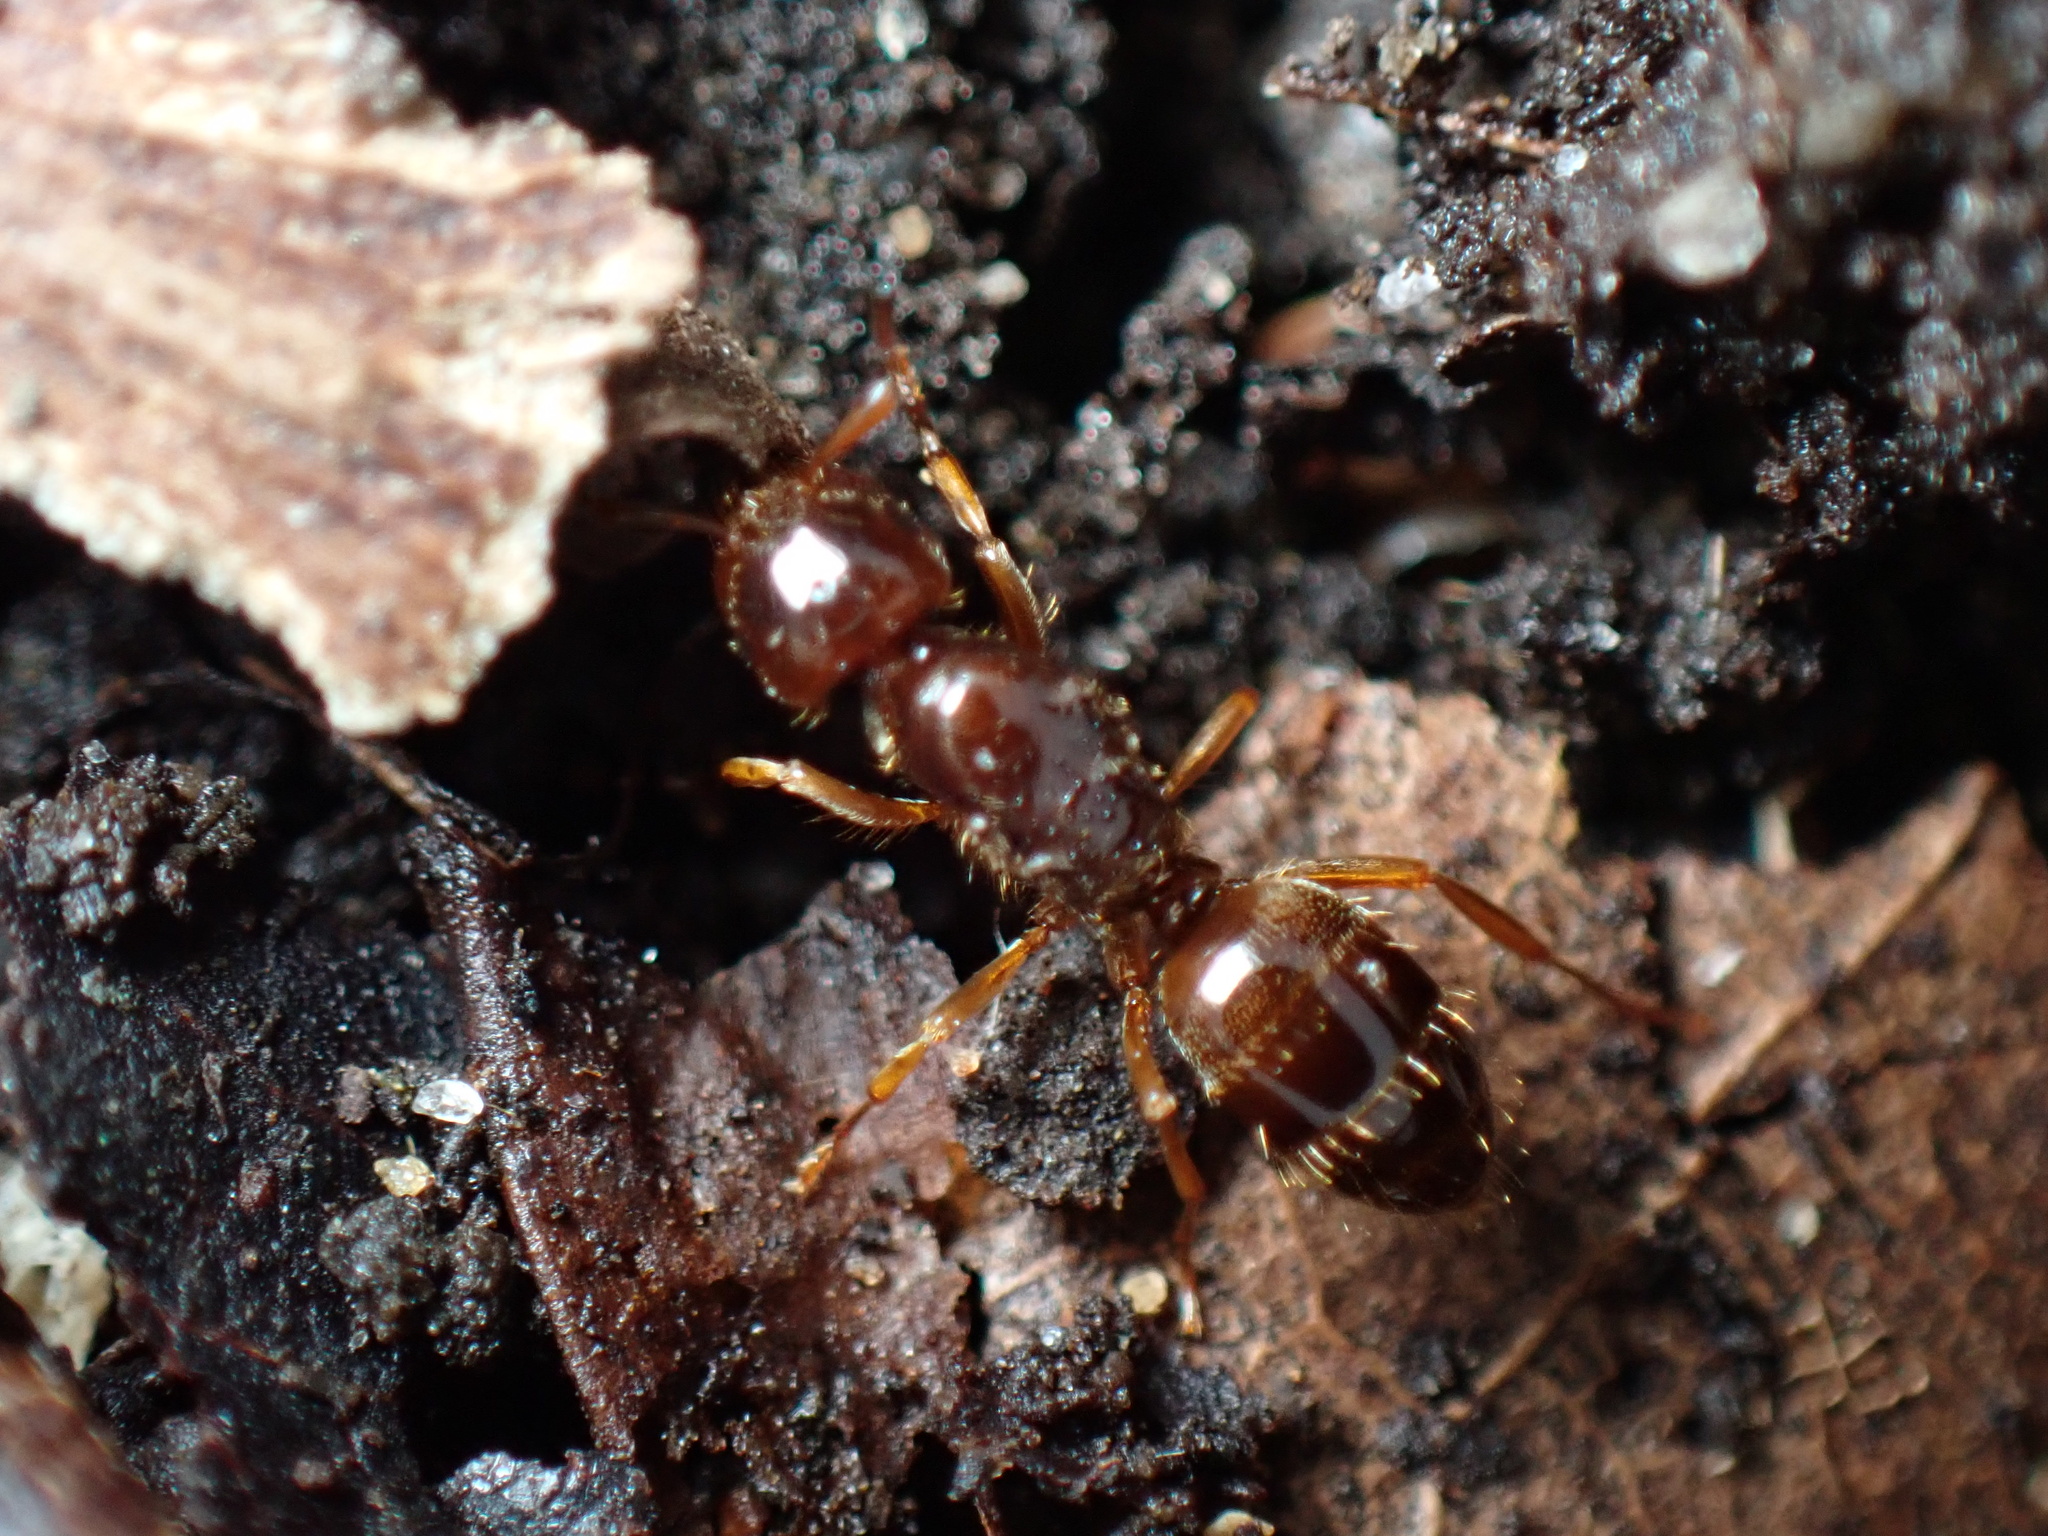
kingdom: Animalia
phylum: Arthropoda
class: Insecta
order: Hymenoptera
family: Formicidae
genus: Lasius
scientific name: Lasius claviger
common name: Common citronella ant
